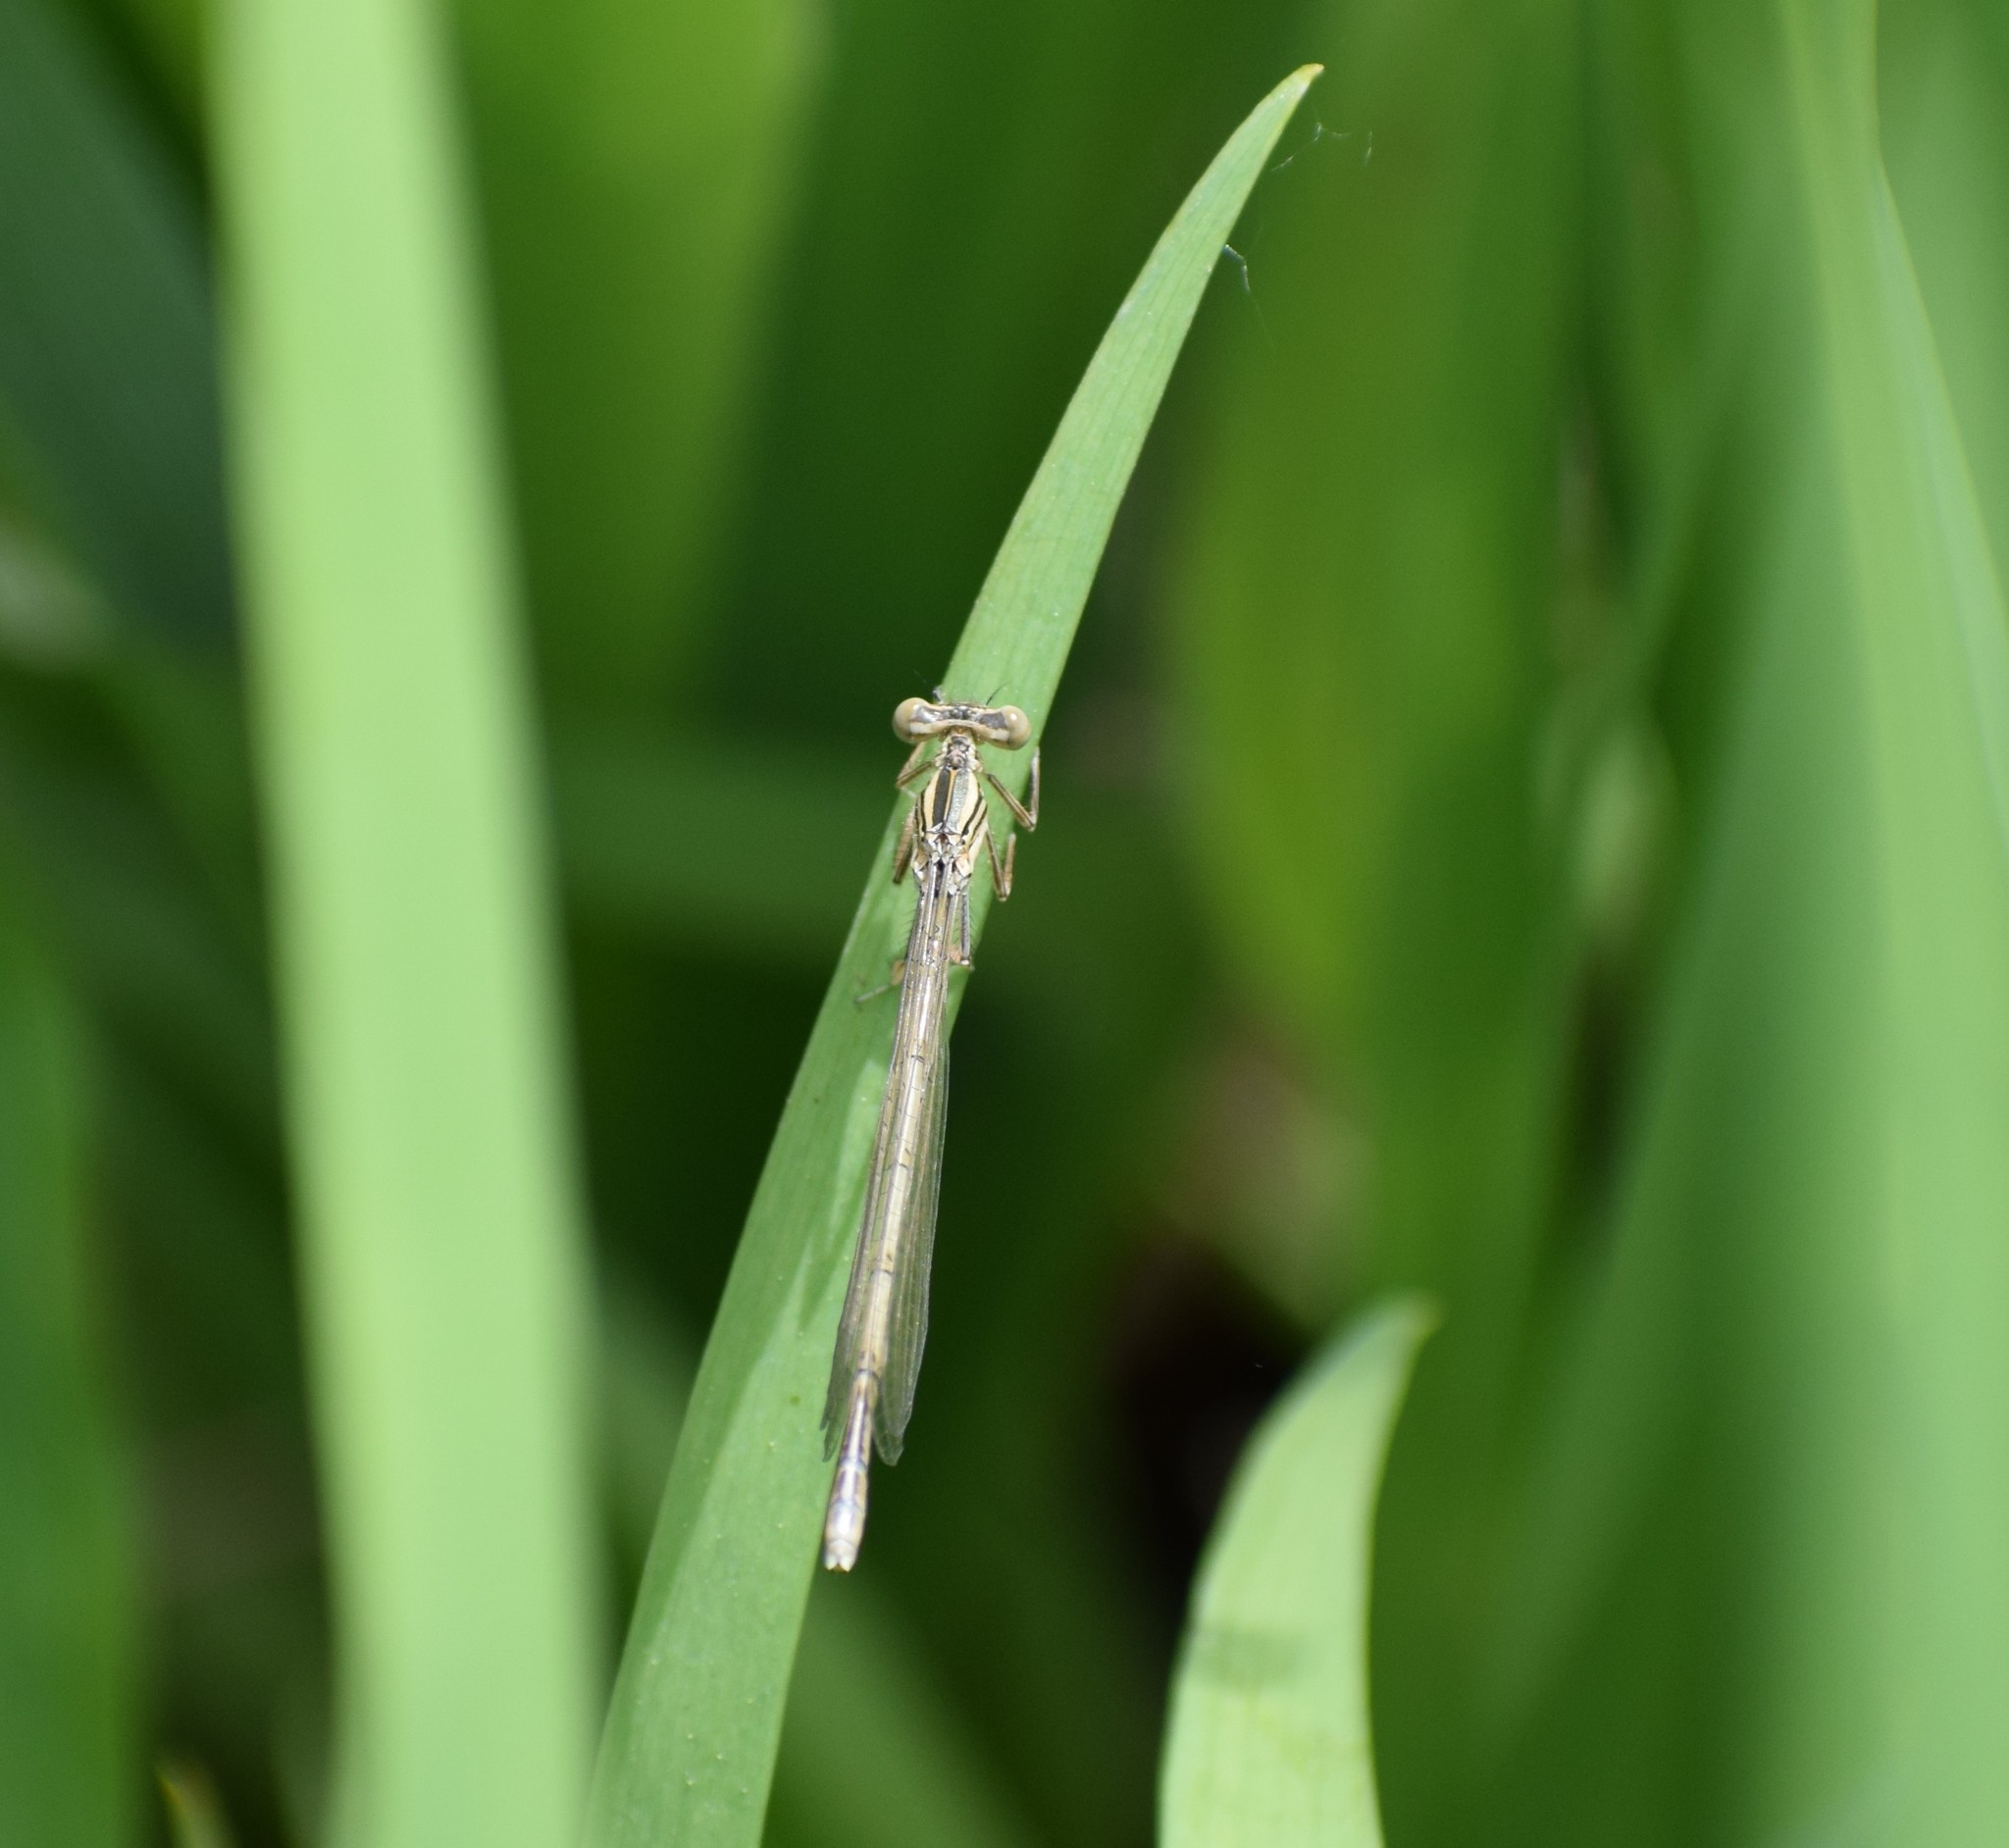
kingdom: Animalia
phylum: Arthropoda
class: Insecta
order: Odonata
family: Platycnemididae
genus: Platycnemis
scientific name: Platycnemis pennipes
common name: White-legged damselfly
